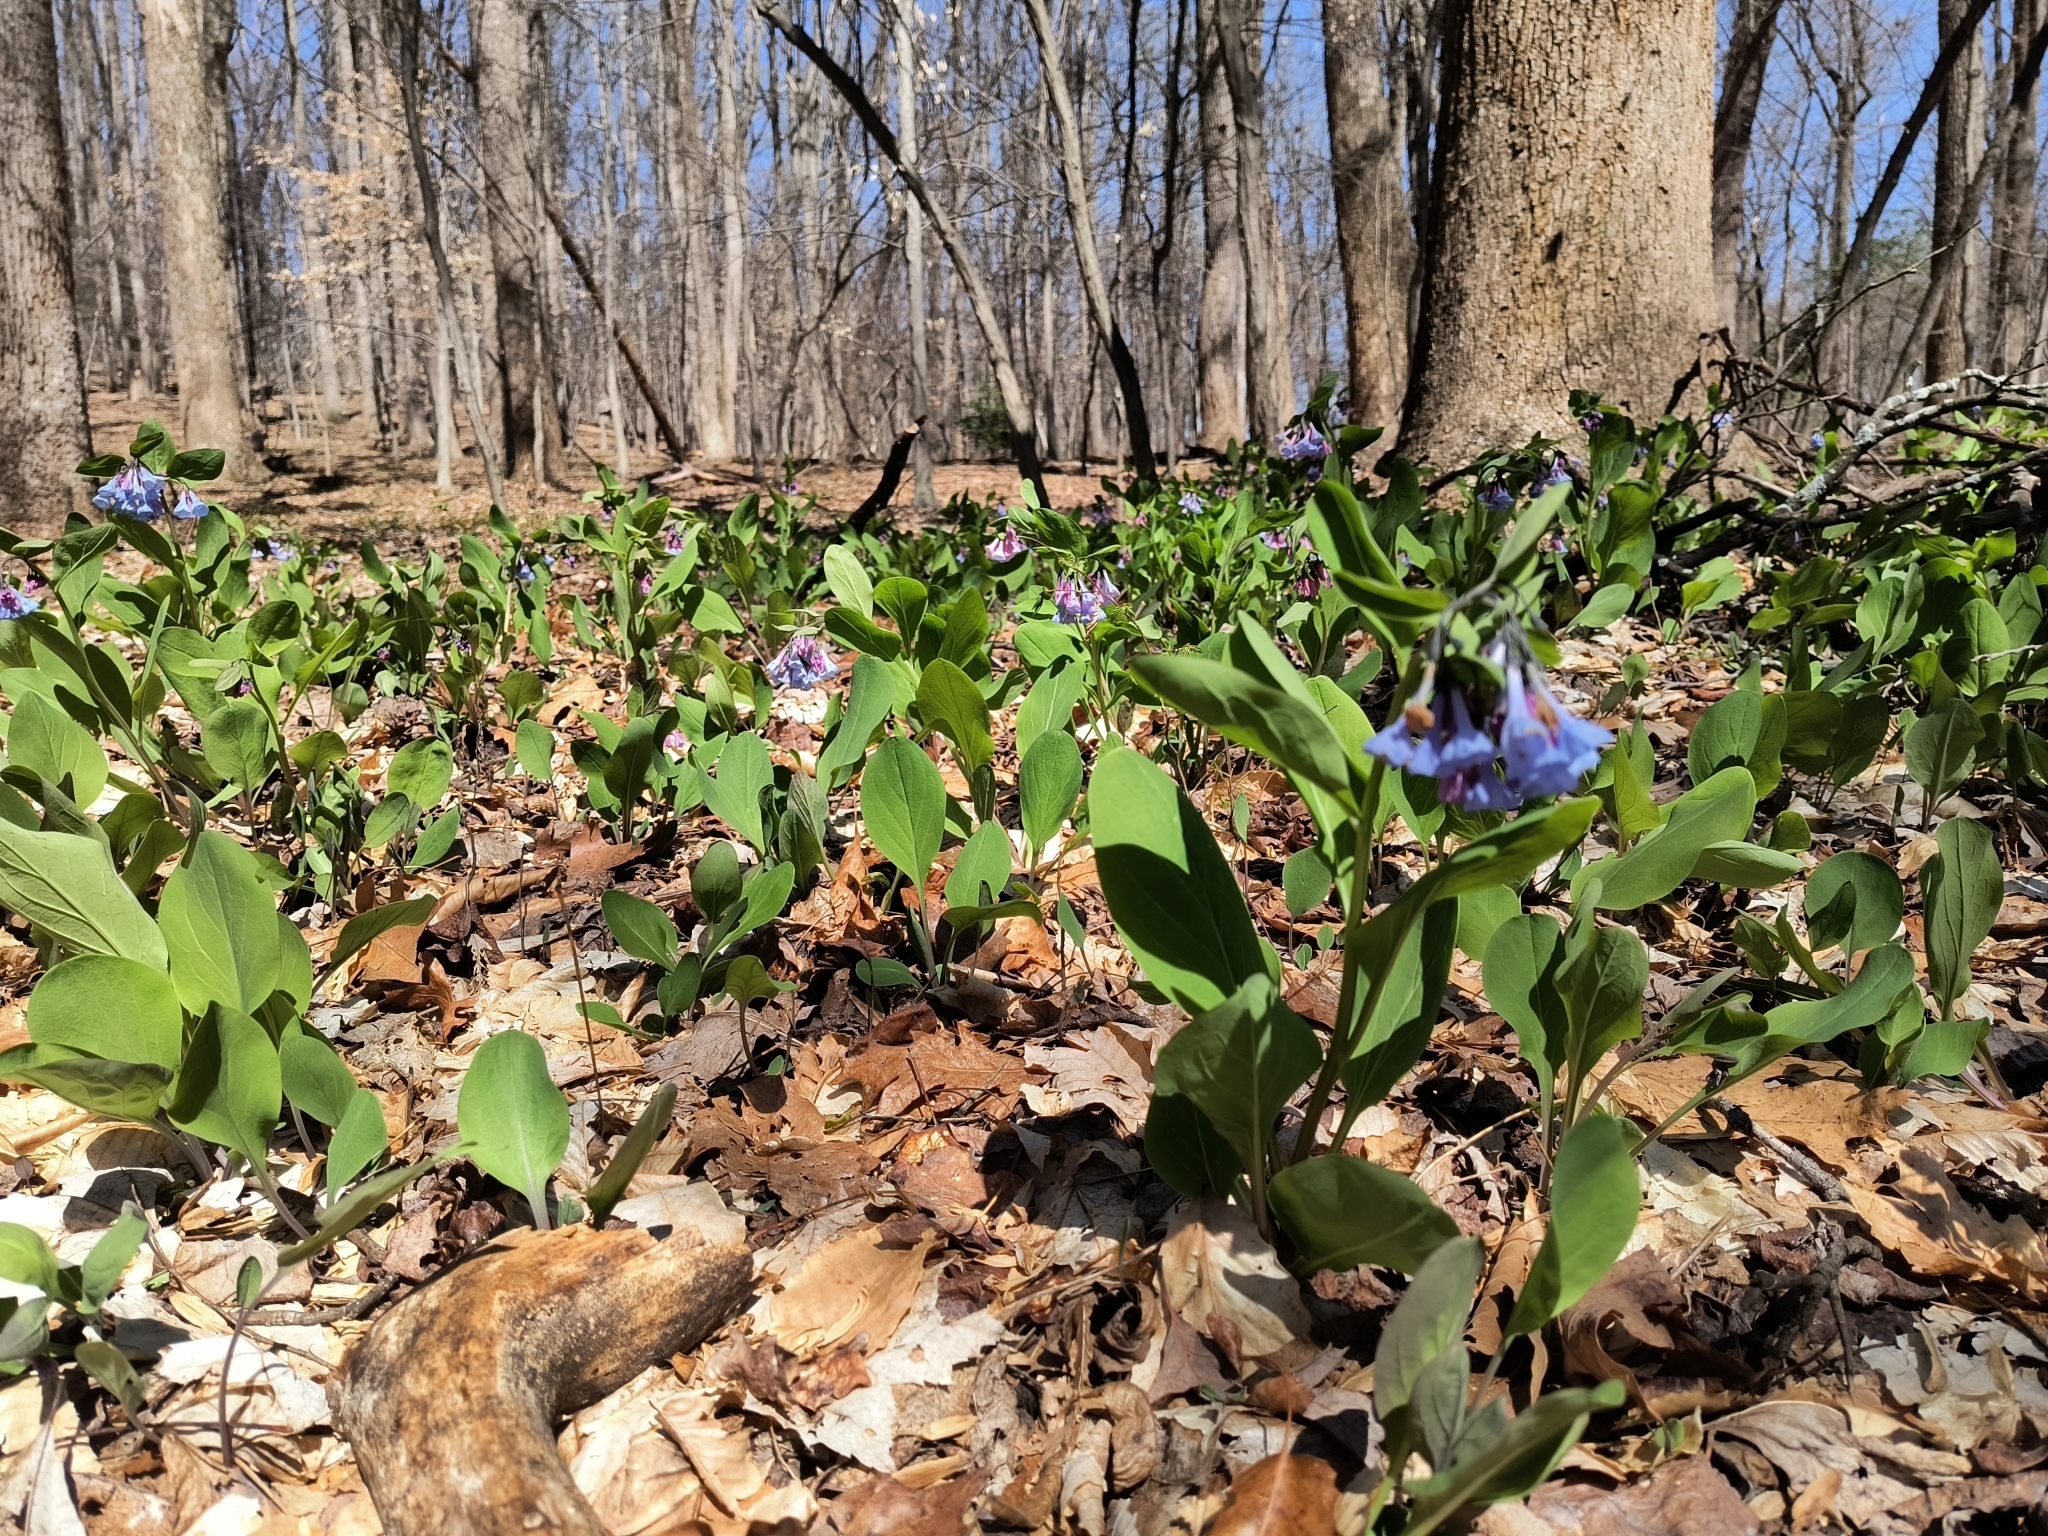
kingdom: Plantae
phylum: Tracheophyta
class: Magnoliopsida
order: Boraginales
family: Boraginaceae
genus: Mertensia
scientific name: Mertensia virginica
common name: Virginia bluebells
